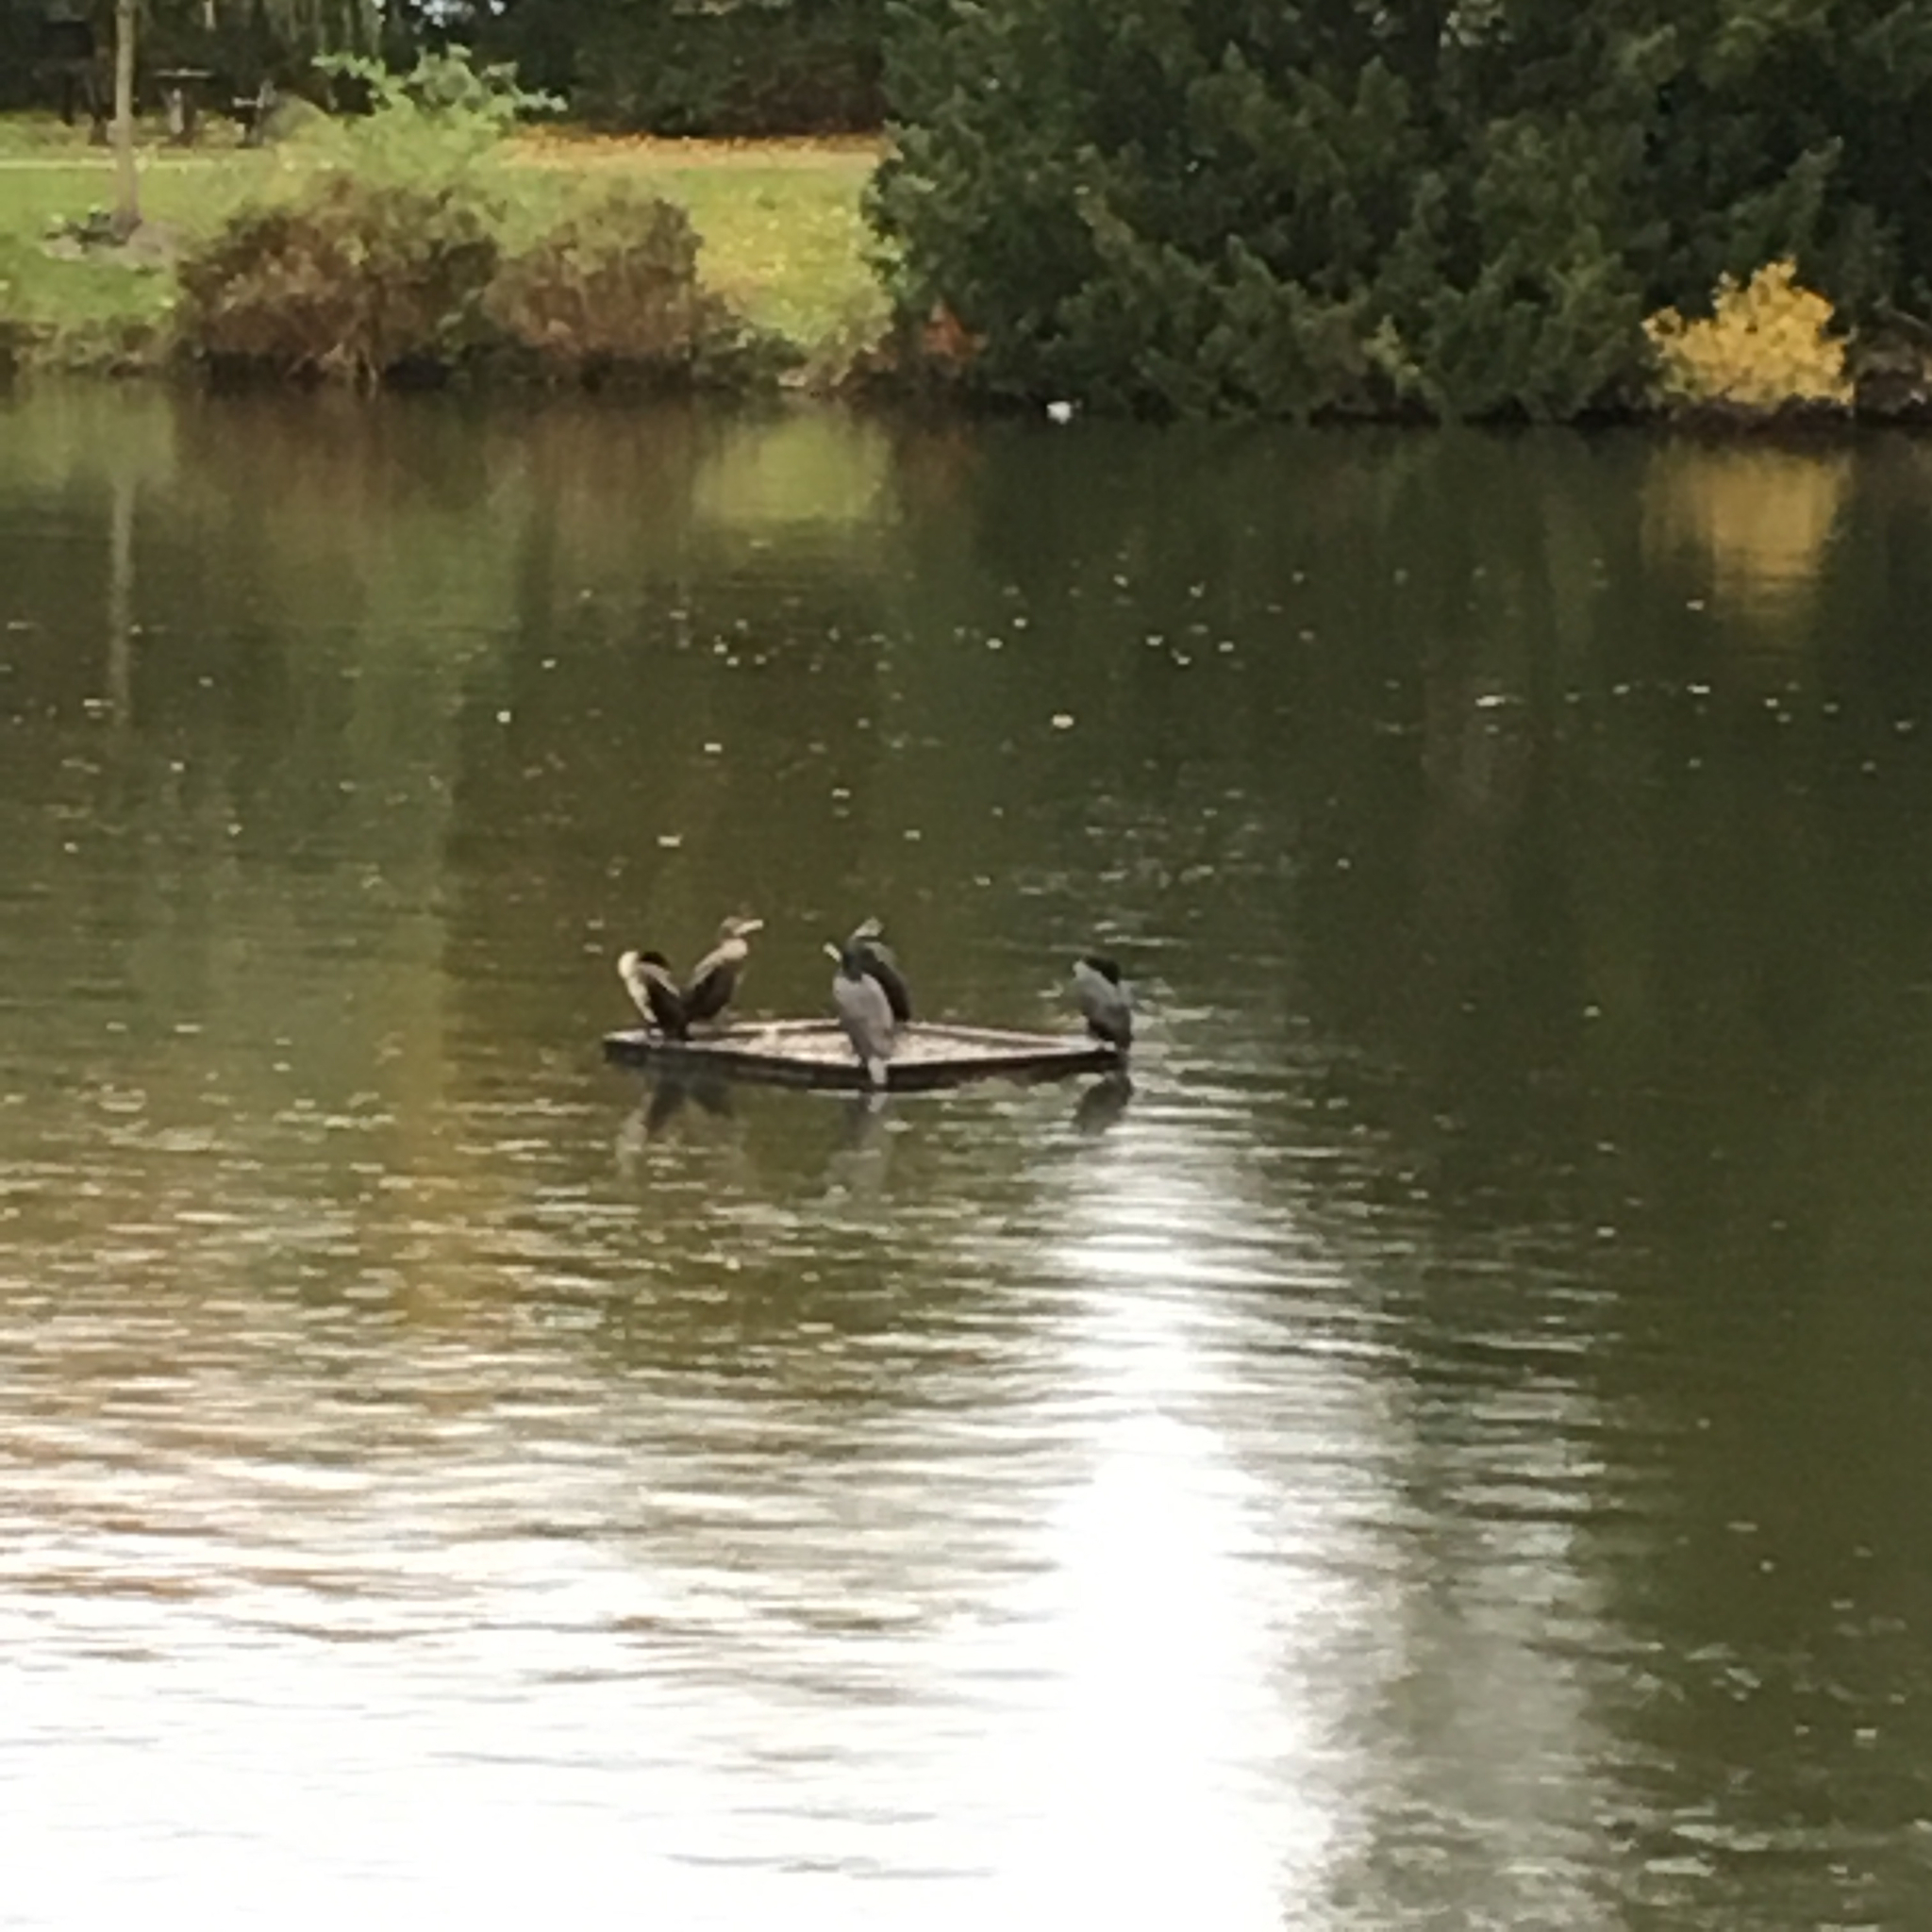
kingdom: Animalia
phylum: Chordata
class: Aves
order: Suliformes
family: Phalacrocoracidae
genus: Phalacrocorax
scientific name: Phalacrocorax carbo
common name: Great cormorant
